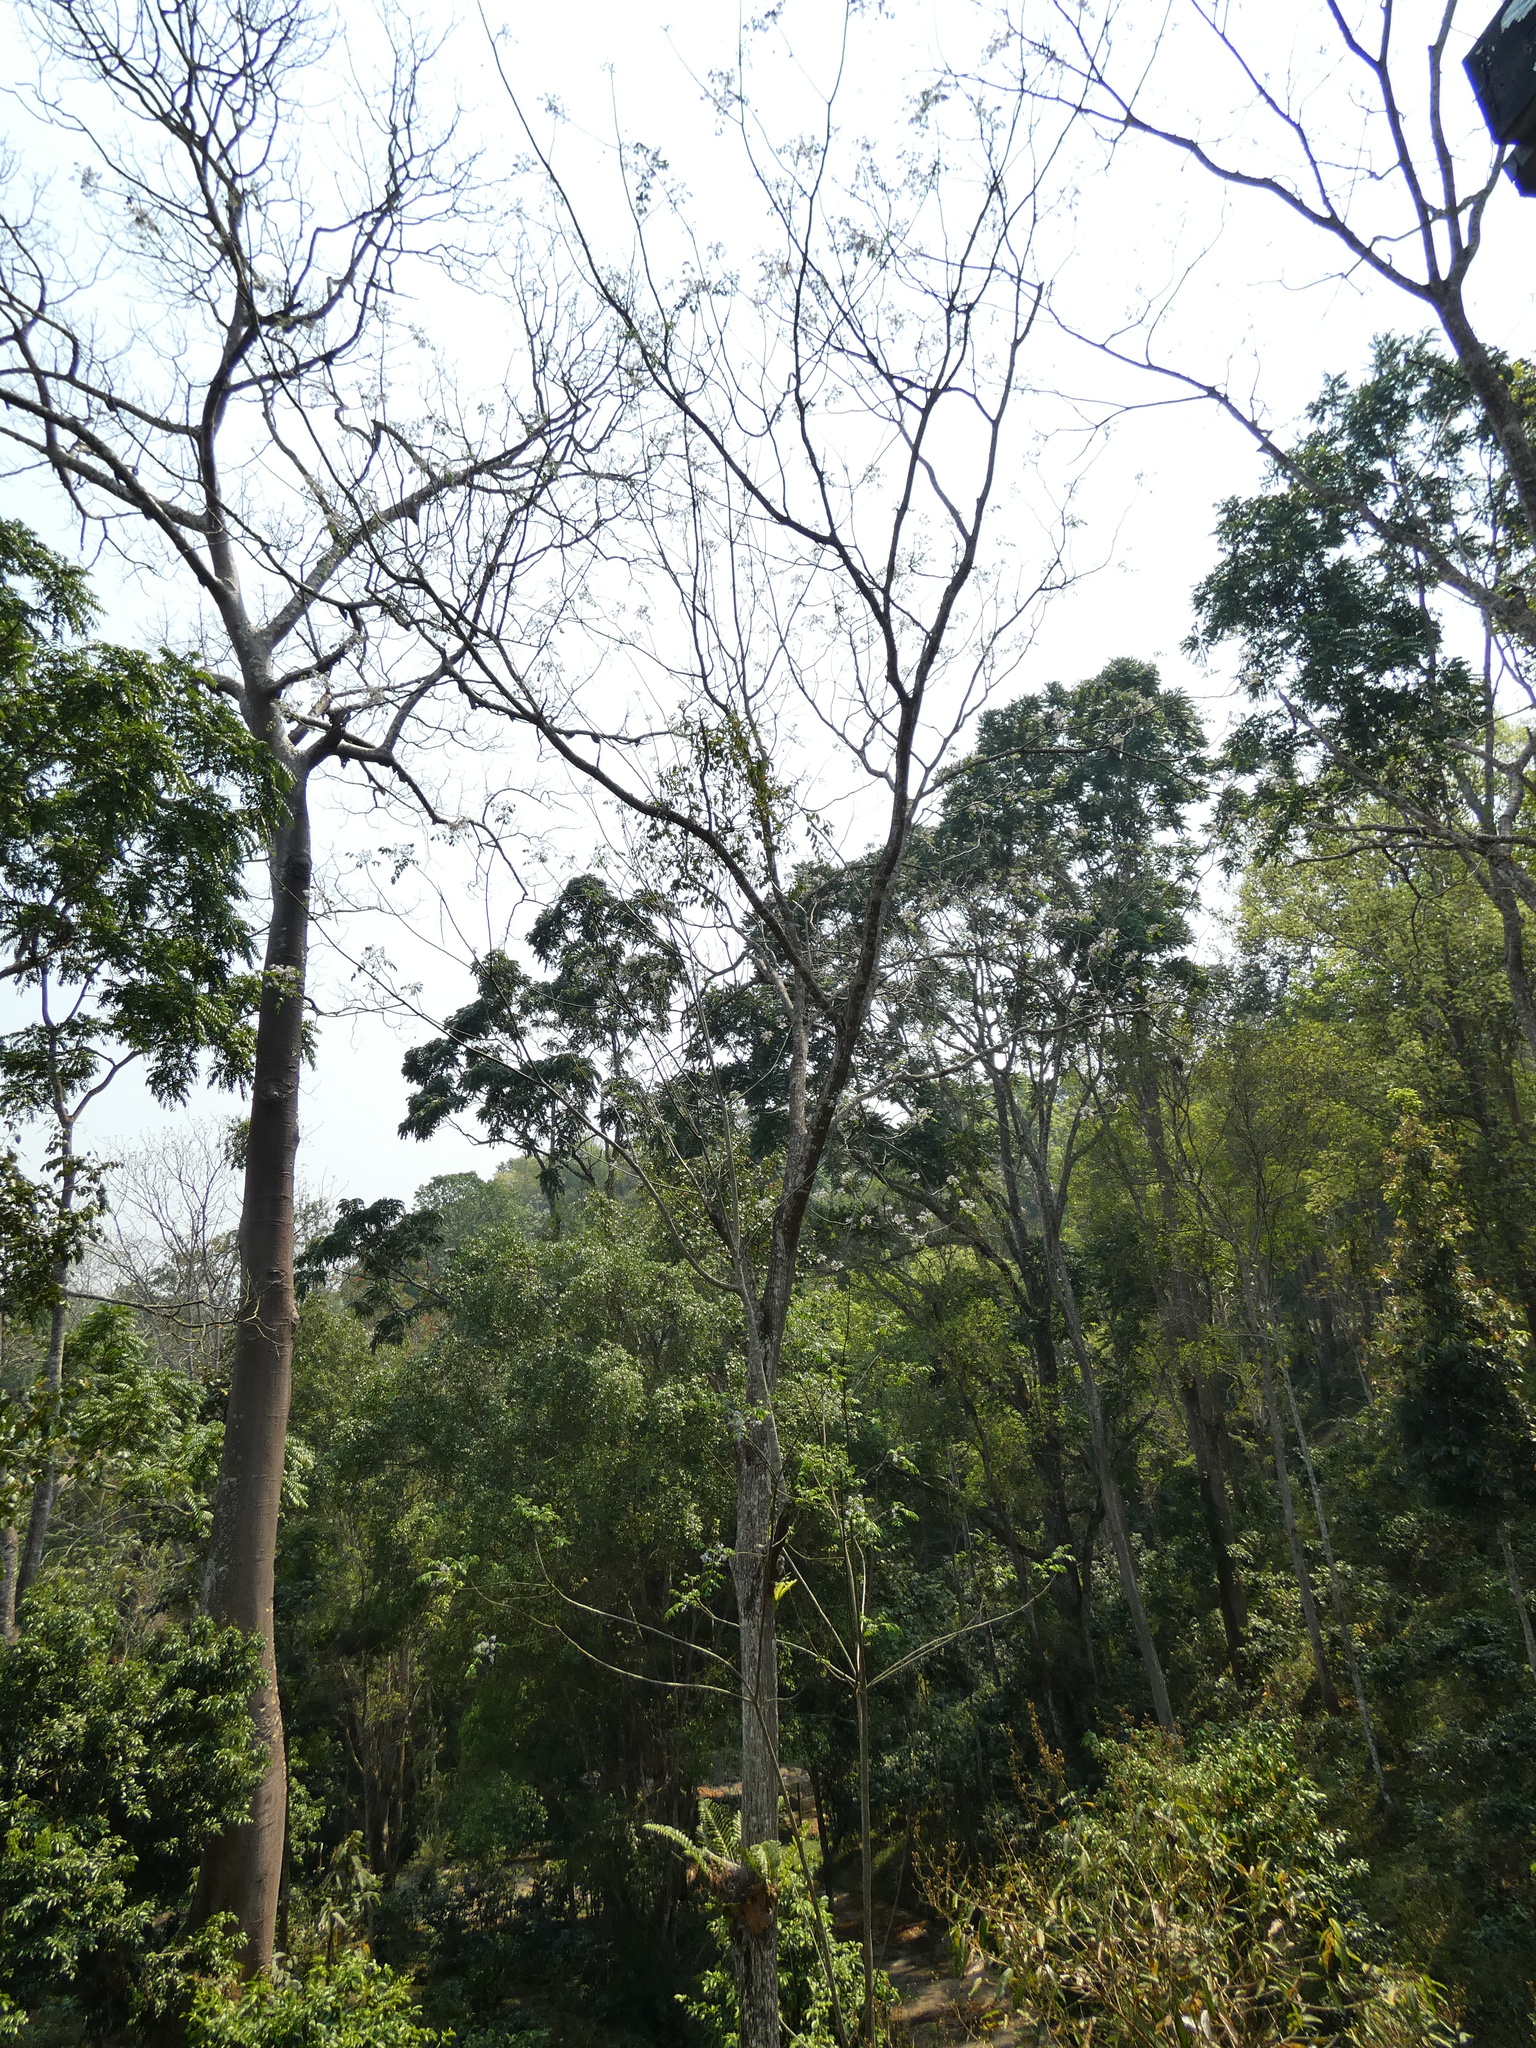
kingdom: Plantae
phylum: Tracheophyta
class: Magnoliopsida
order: Sapindales
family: Meliaceae
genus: Melia
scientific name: Melia azedarach
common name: Chinaberrytree
